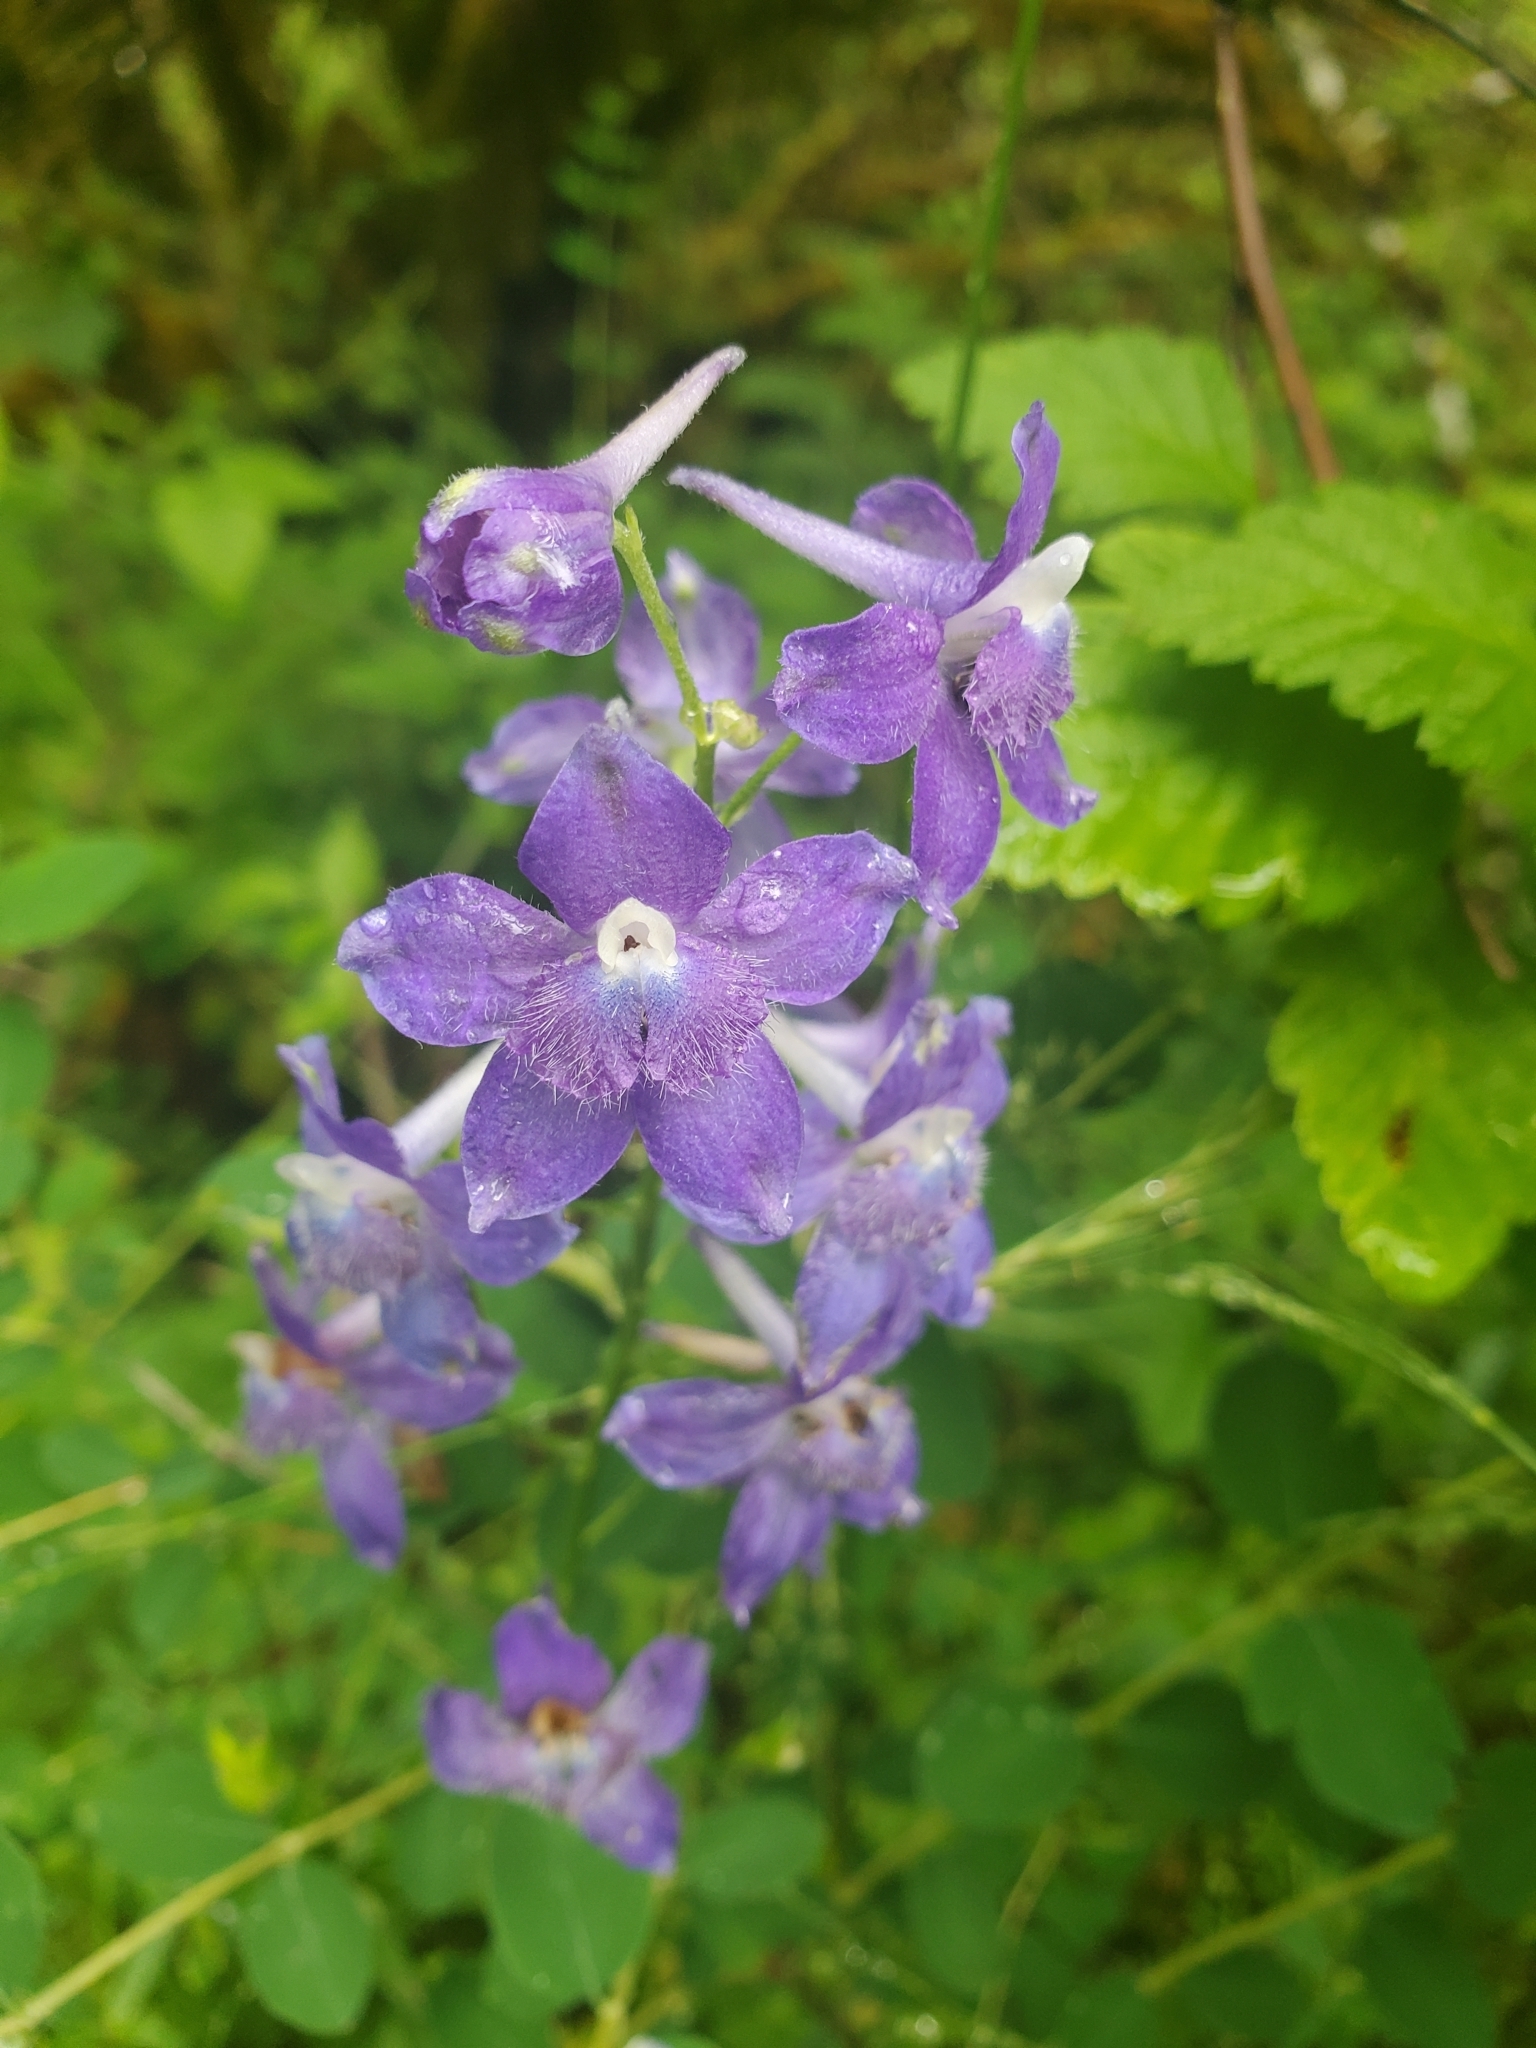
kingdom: Plantae
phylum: Tracheophyta
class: Magnoliopsida
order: Ranunculales
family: Ranunculaceae
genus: Delphinium
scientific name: Delphinium menziesii
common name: Menzies's larkspur
